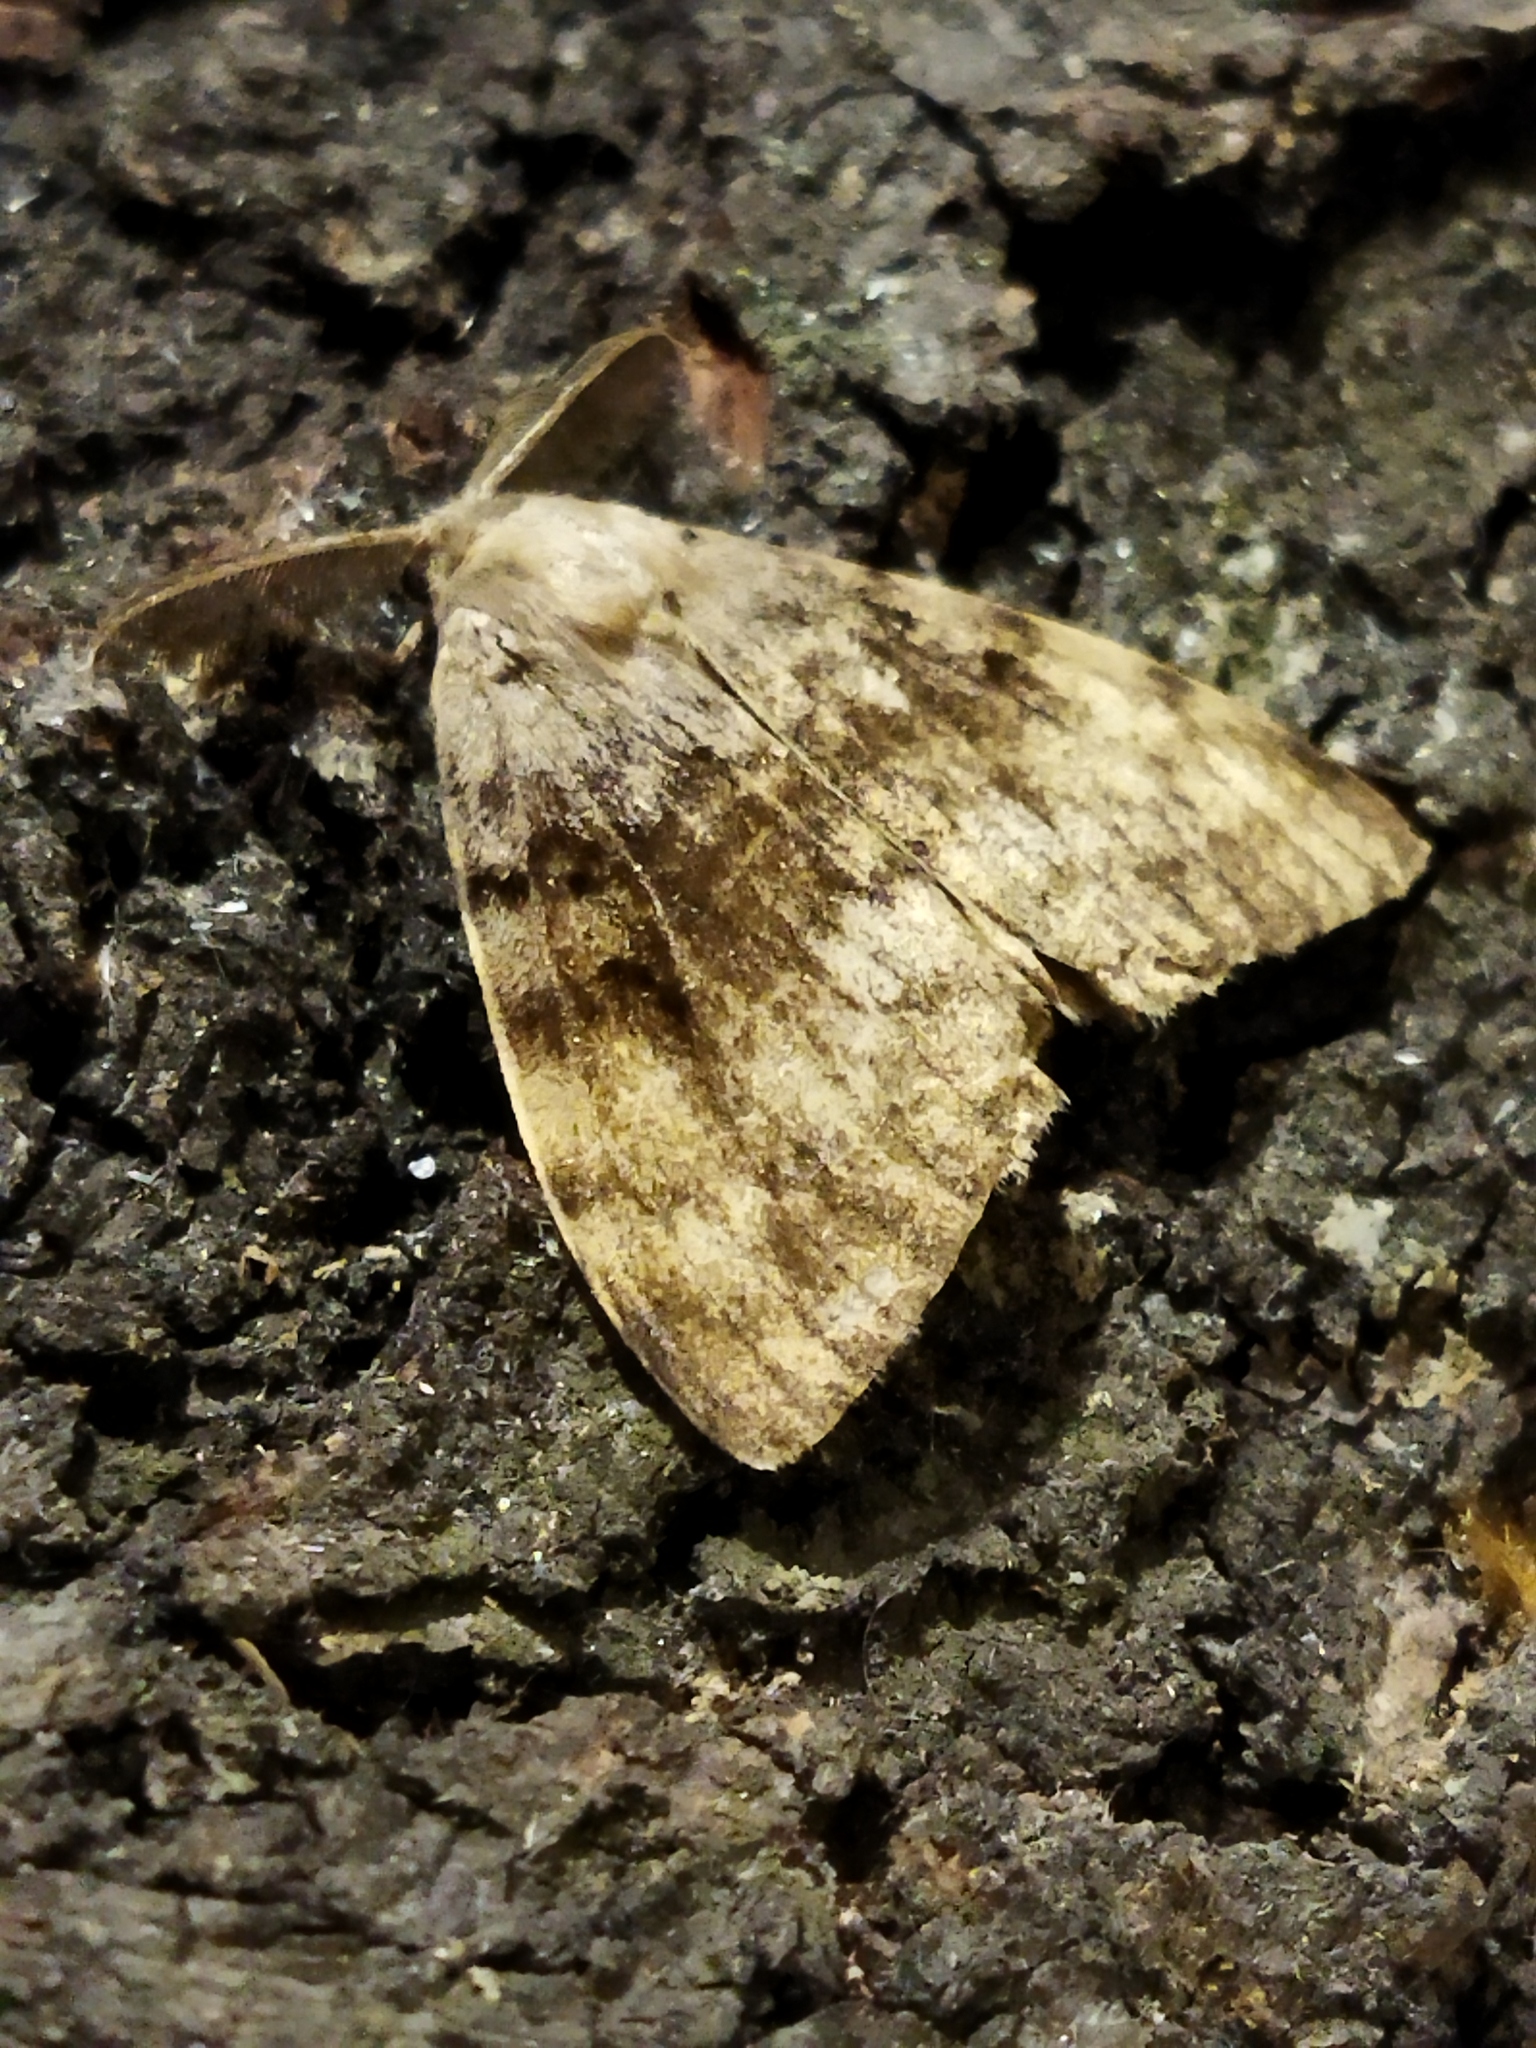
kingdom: Animalia
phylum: Arthropoda
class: Insecta
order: Lepidoptera
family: Erebidae
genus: Lymantria
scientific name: Lymantria dispar
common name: Gypsy moth
